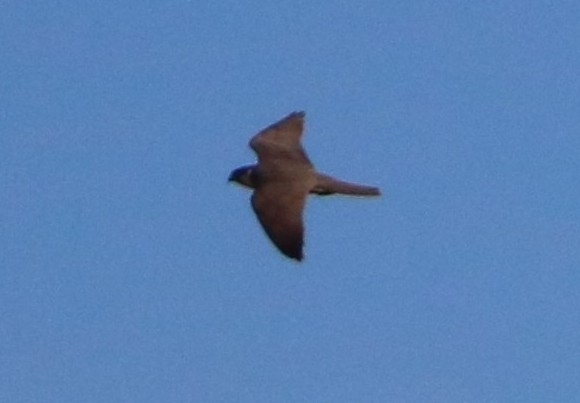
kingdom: Animalia
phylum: Chordata
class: Aves
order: Falconiformes
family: Falconidae
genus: Falco
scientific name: Falco subbuteo
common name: Eurasian hobby
